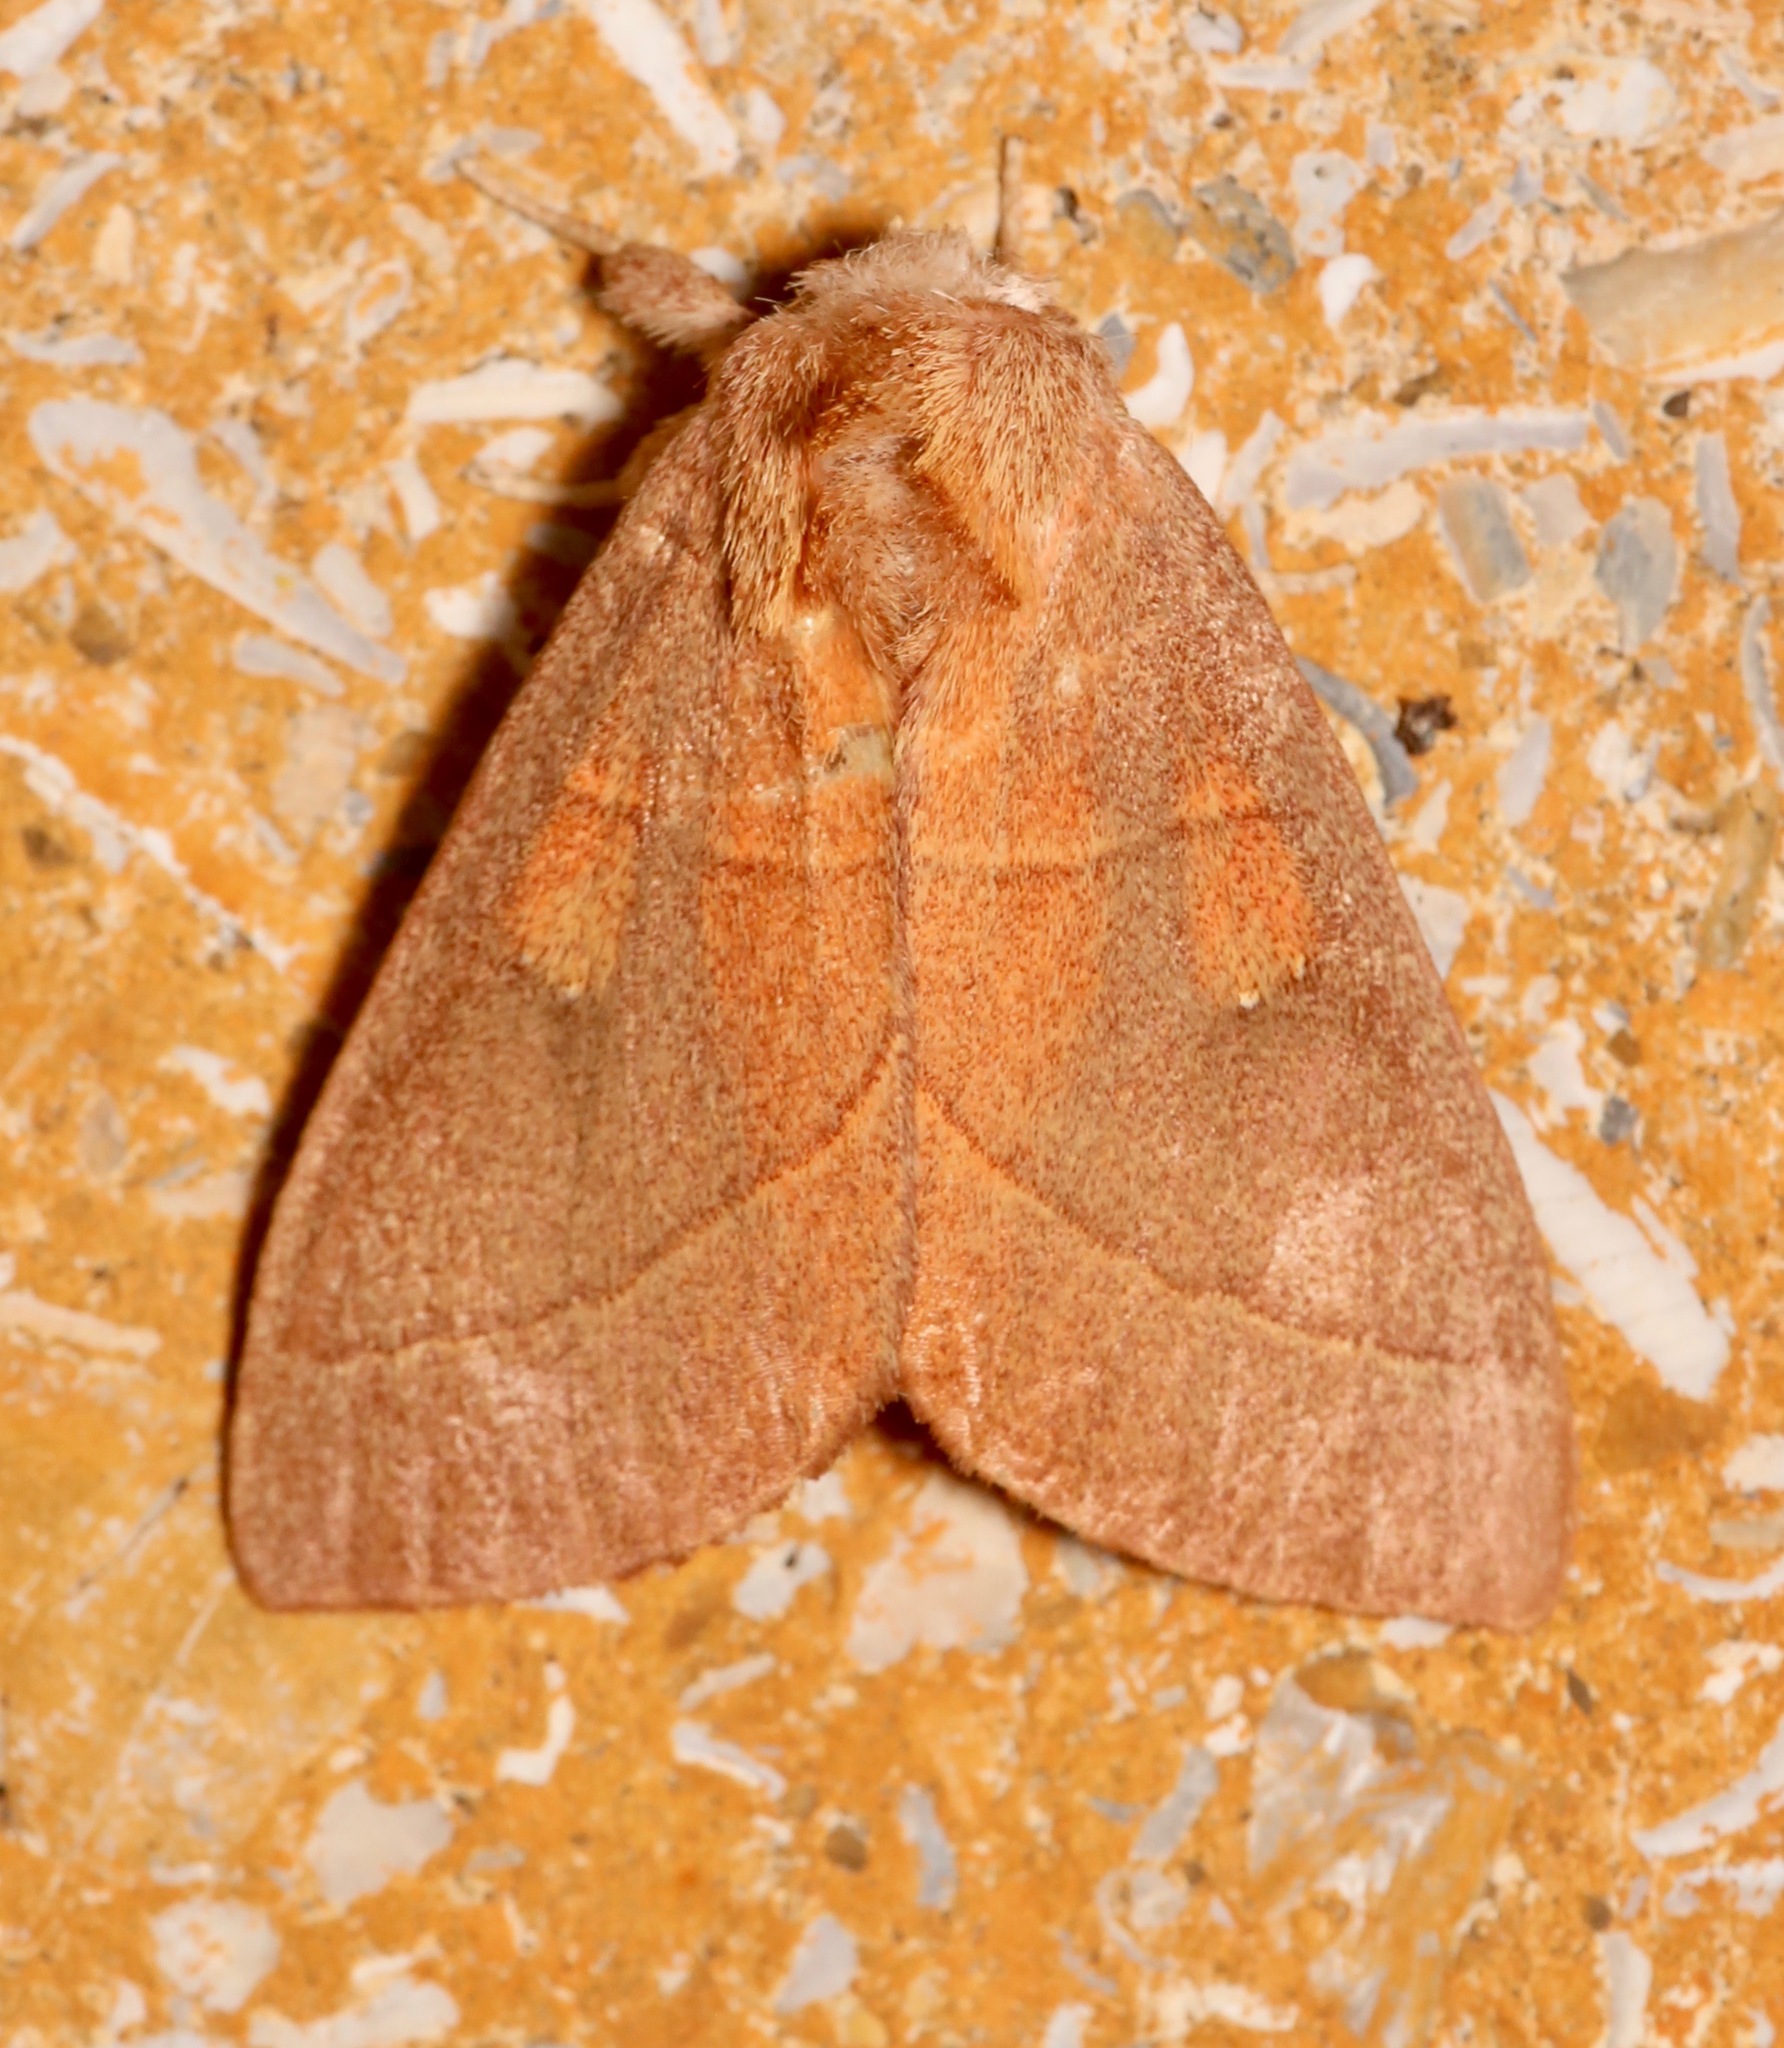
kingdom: Animalia
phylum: Arthropoda
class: Insecta
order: Lepidoptera
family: Notodontidae
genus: Nadata
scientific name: Nadata gibbosa
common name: White-dotted prominent
